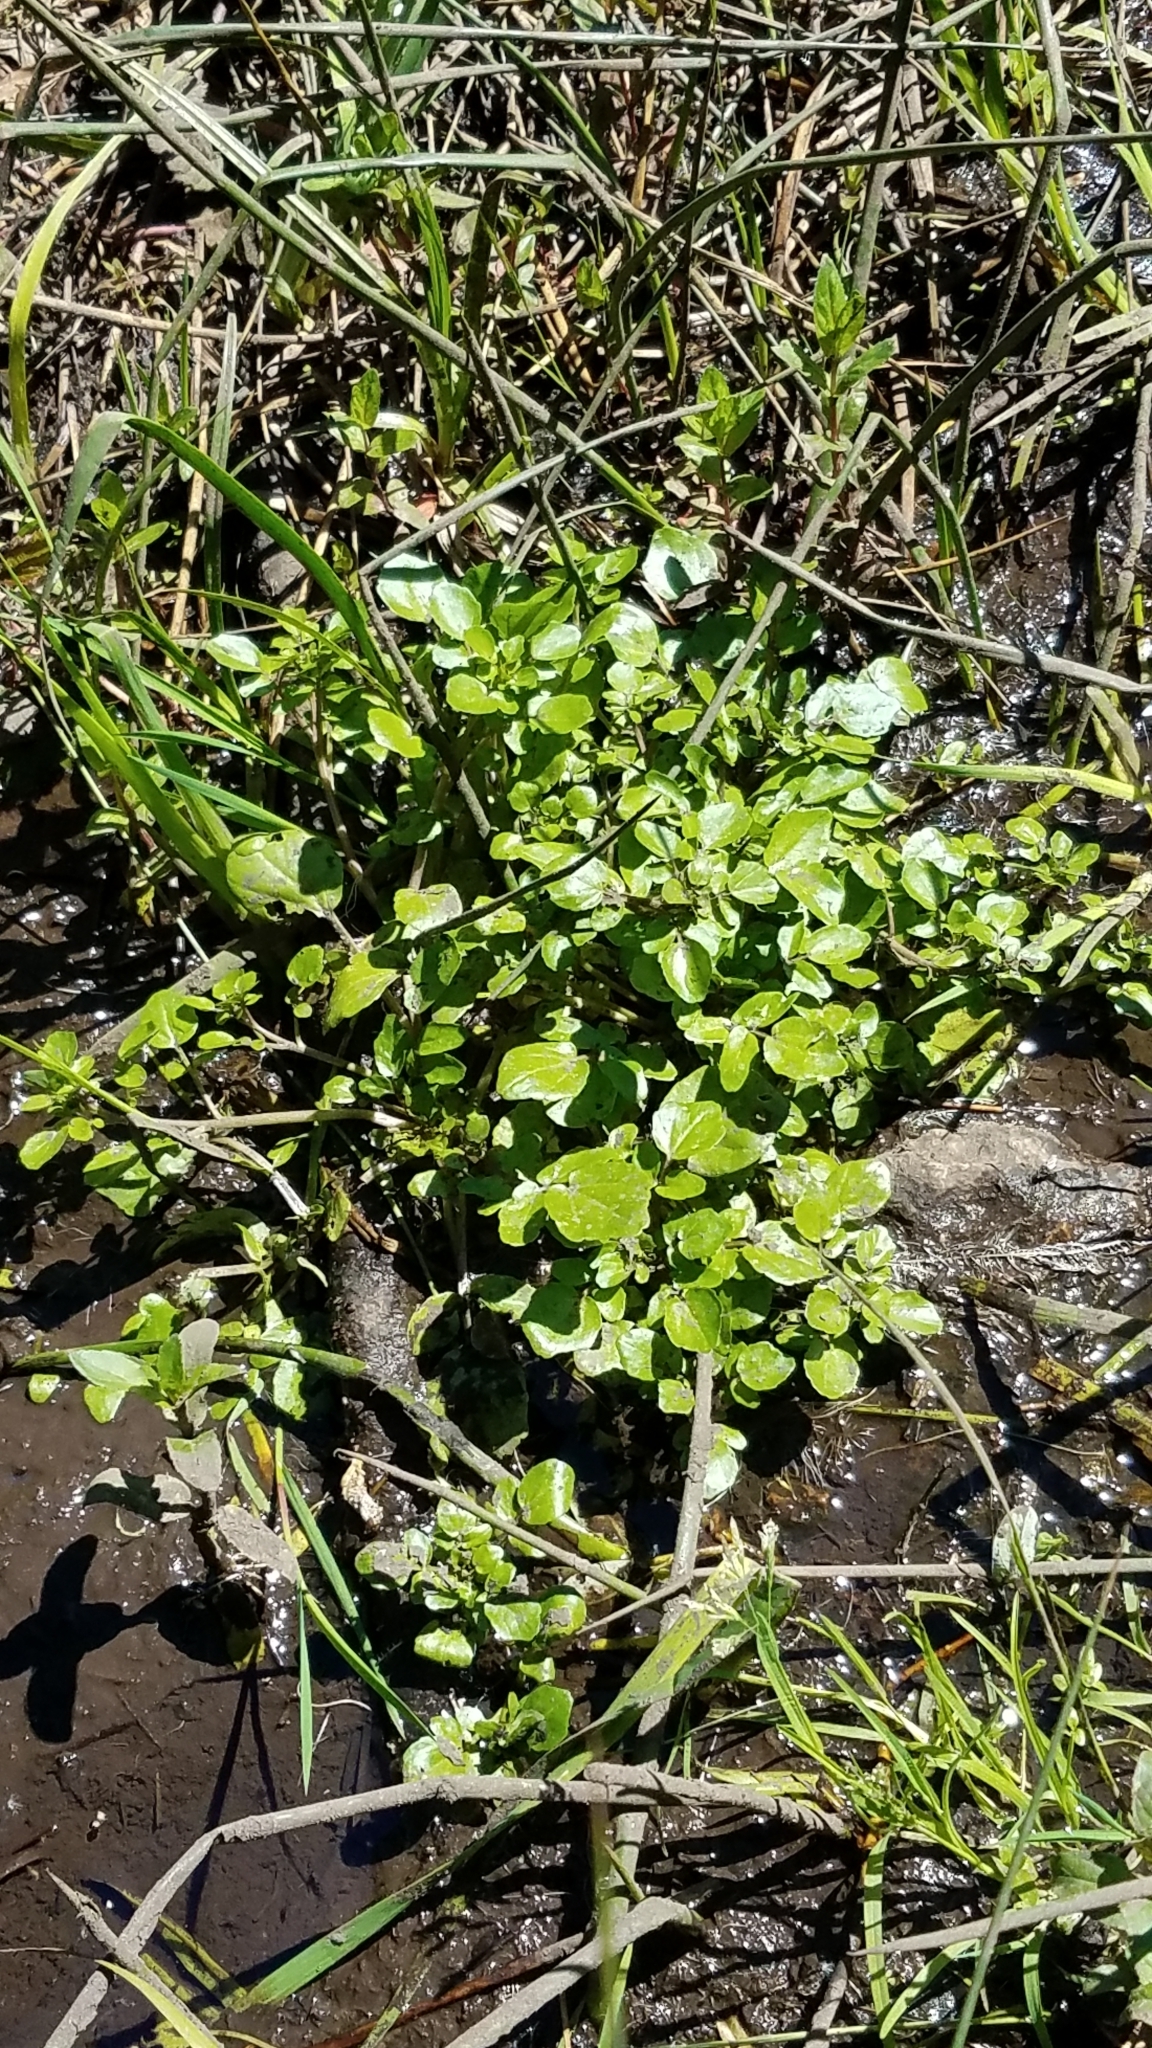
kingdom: Plantae
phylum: Tracheophyta
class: Magnoliopsida
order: Brassicales
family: Brassicaceae
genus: Nasturtium
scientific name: Nasturtium officinale
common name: Watercress
